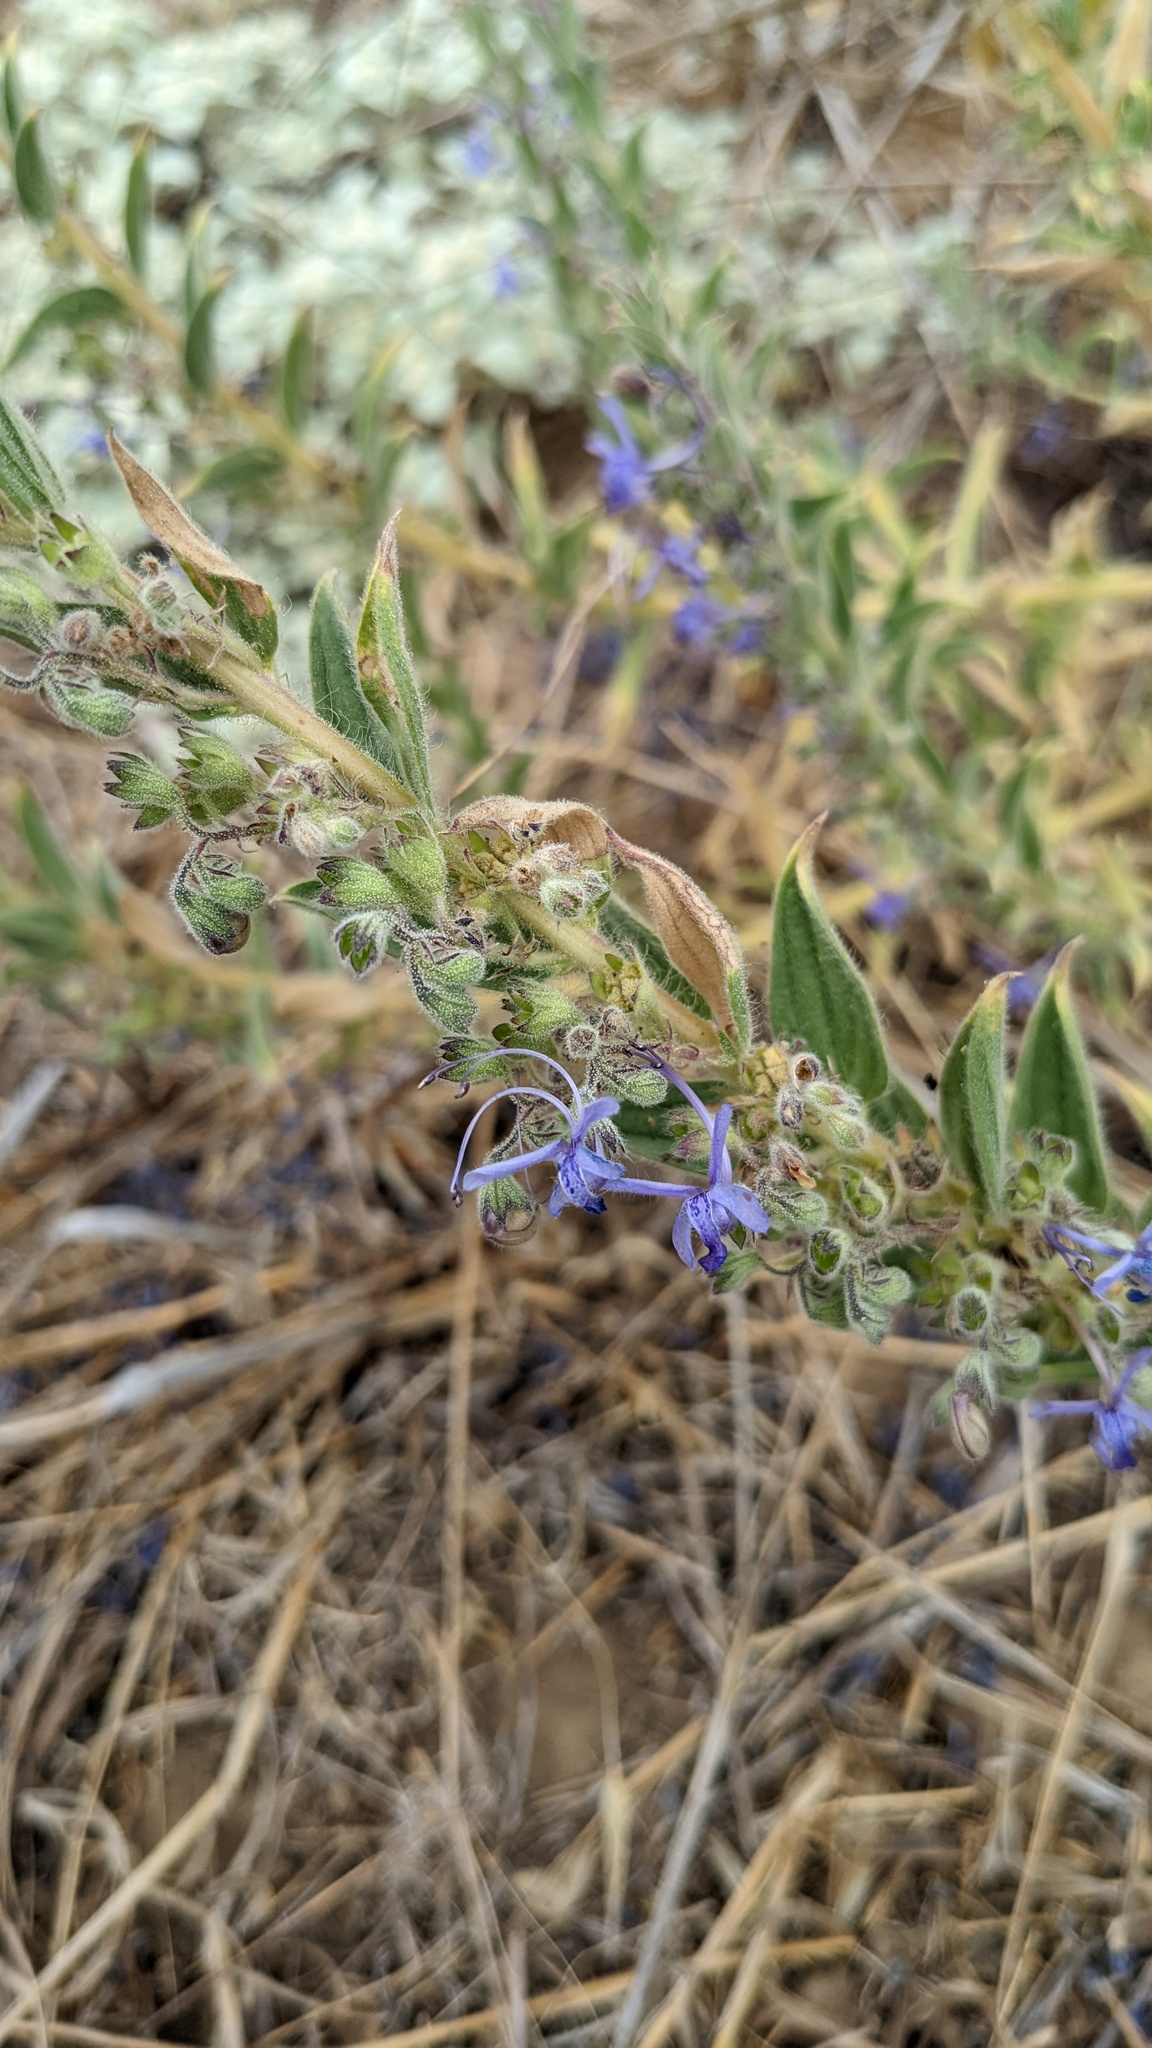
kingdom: Plantae
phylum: Tracheophyta
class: Magnoliopsida
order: Lamiales
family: Lamiaceae
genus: Trichostema
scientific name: Trichostema lanceolatum
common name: Vinegar-weed
